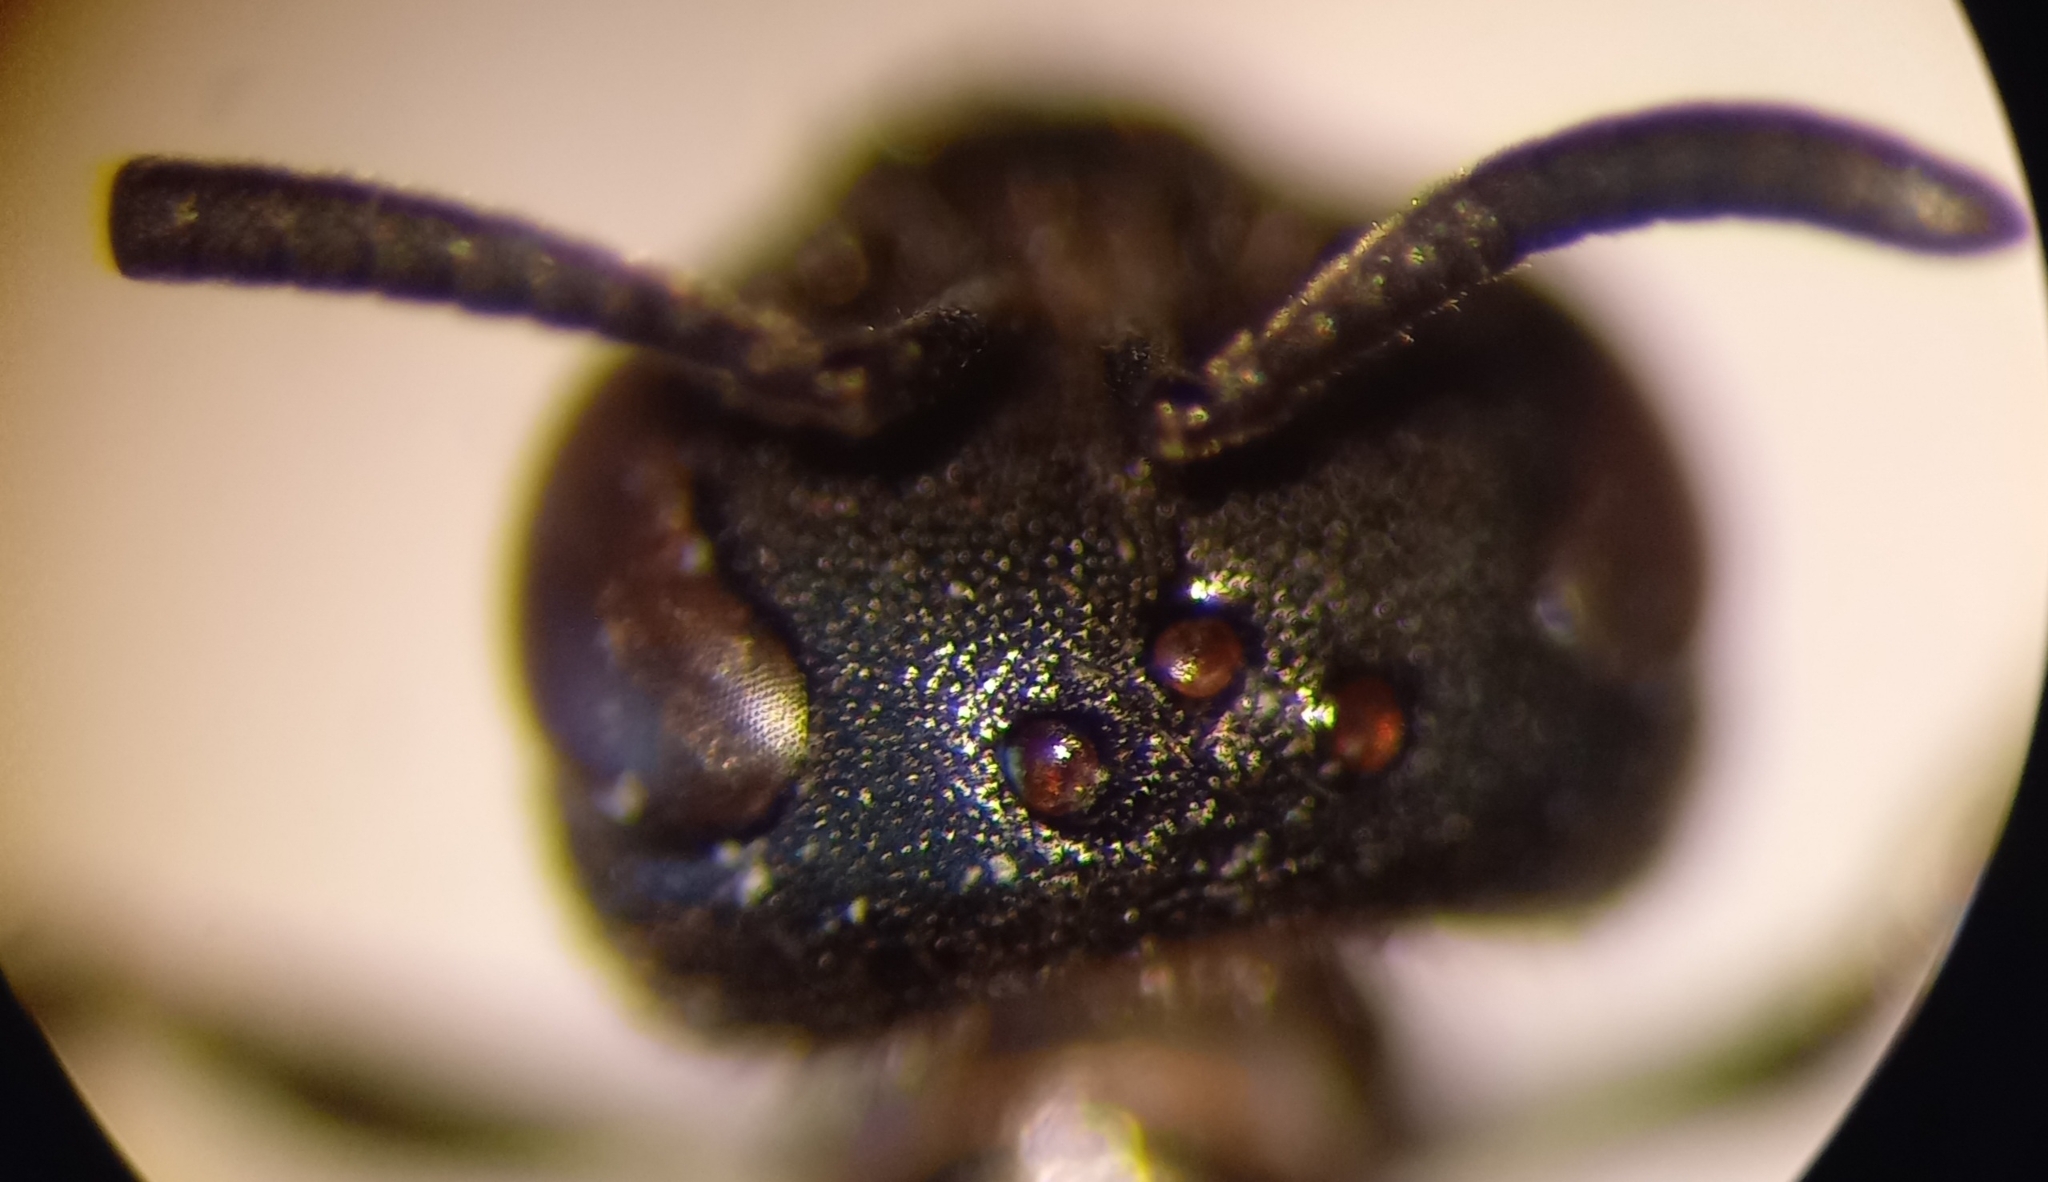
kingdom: Animalia
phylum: Arthropoda
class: Insecta
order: Hymenoptera
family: Halictidae
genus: Lasioglossum
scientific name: Lasioglossum interruptum
